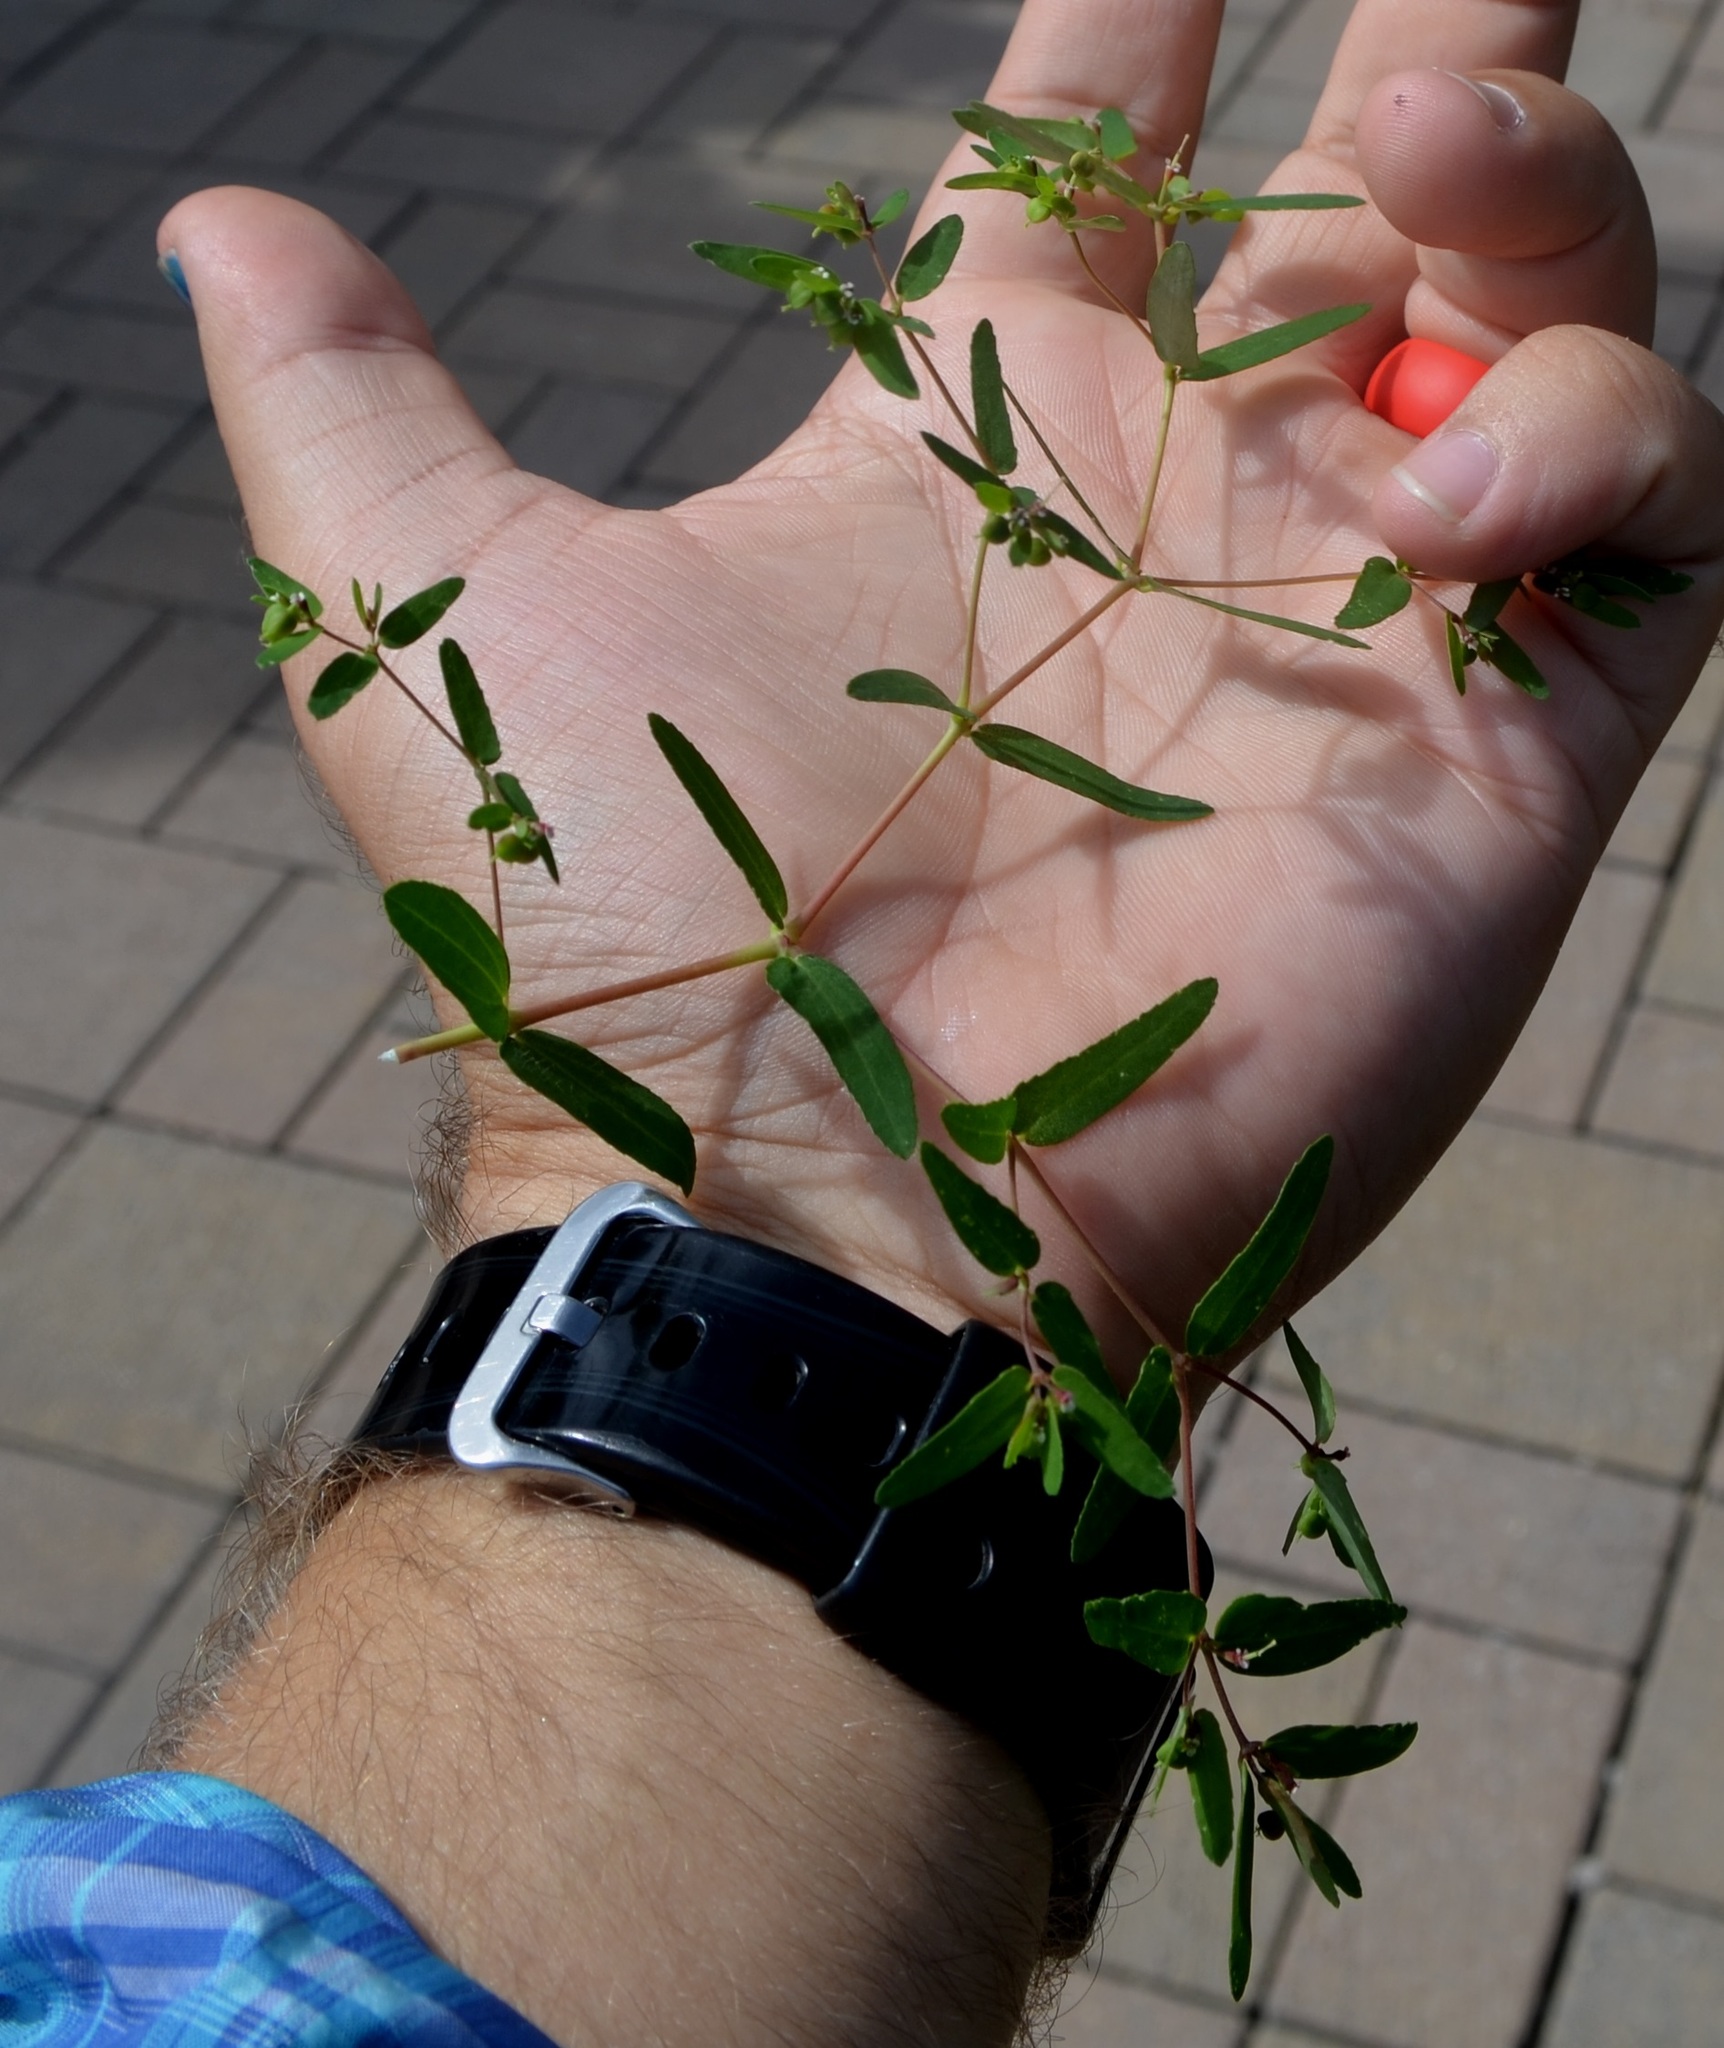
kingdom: Plantae
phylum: Tracheophyta
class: Magnoliopsida
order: Malpighiales
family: Euphorbiaceae
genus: Euphorbia
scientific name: Euphorbia nutans
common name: Eyebane
